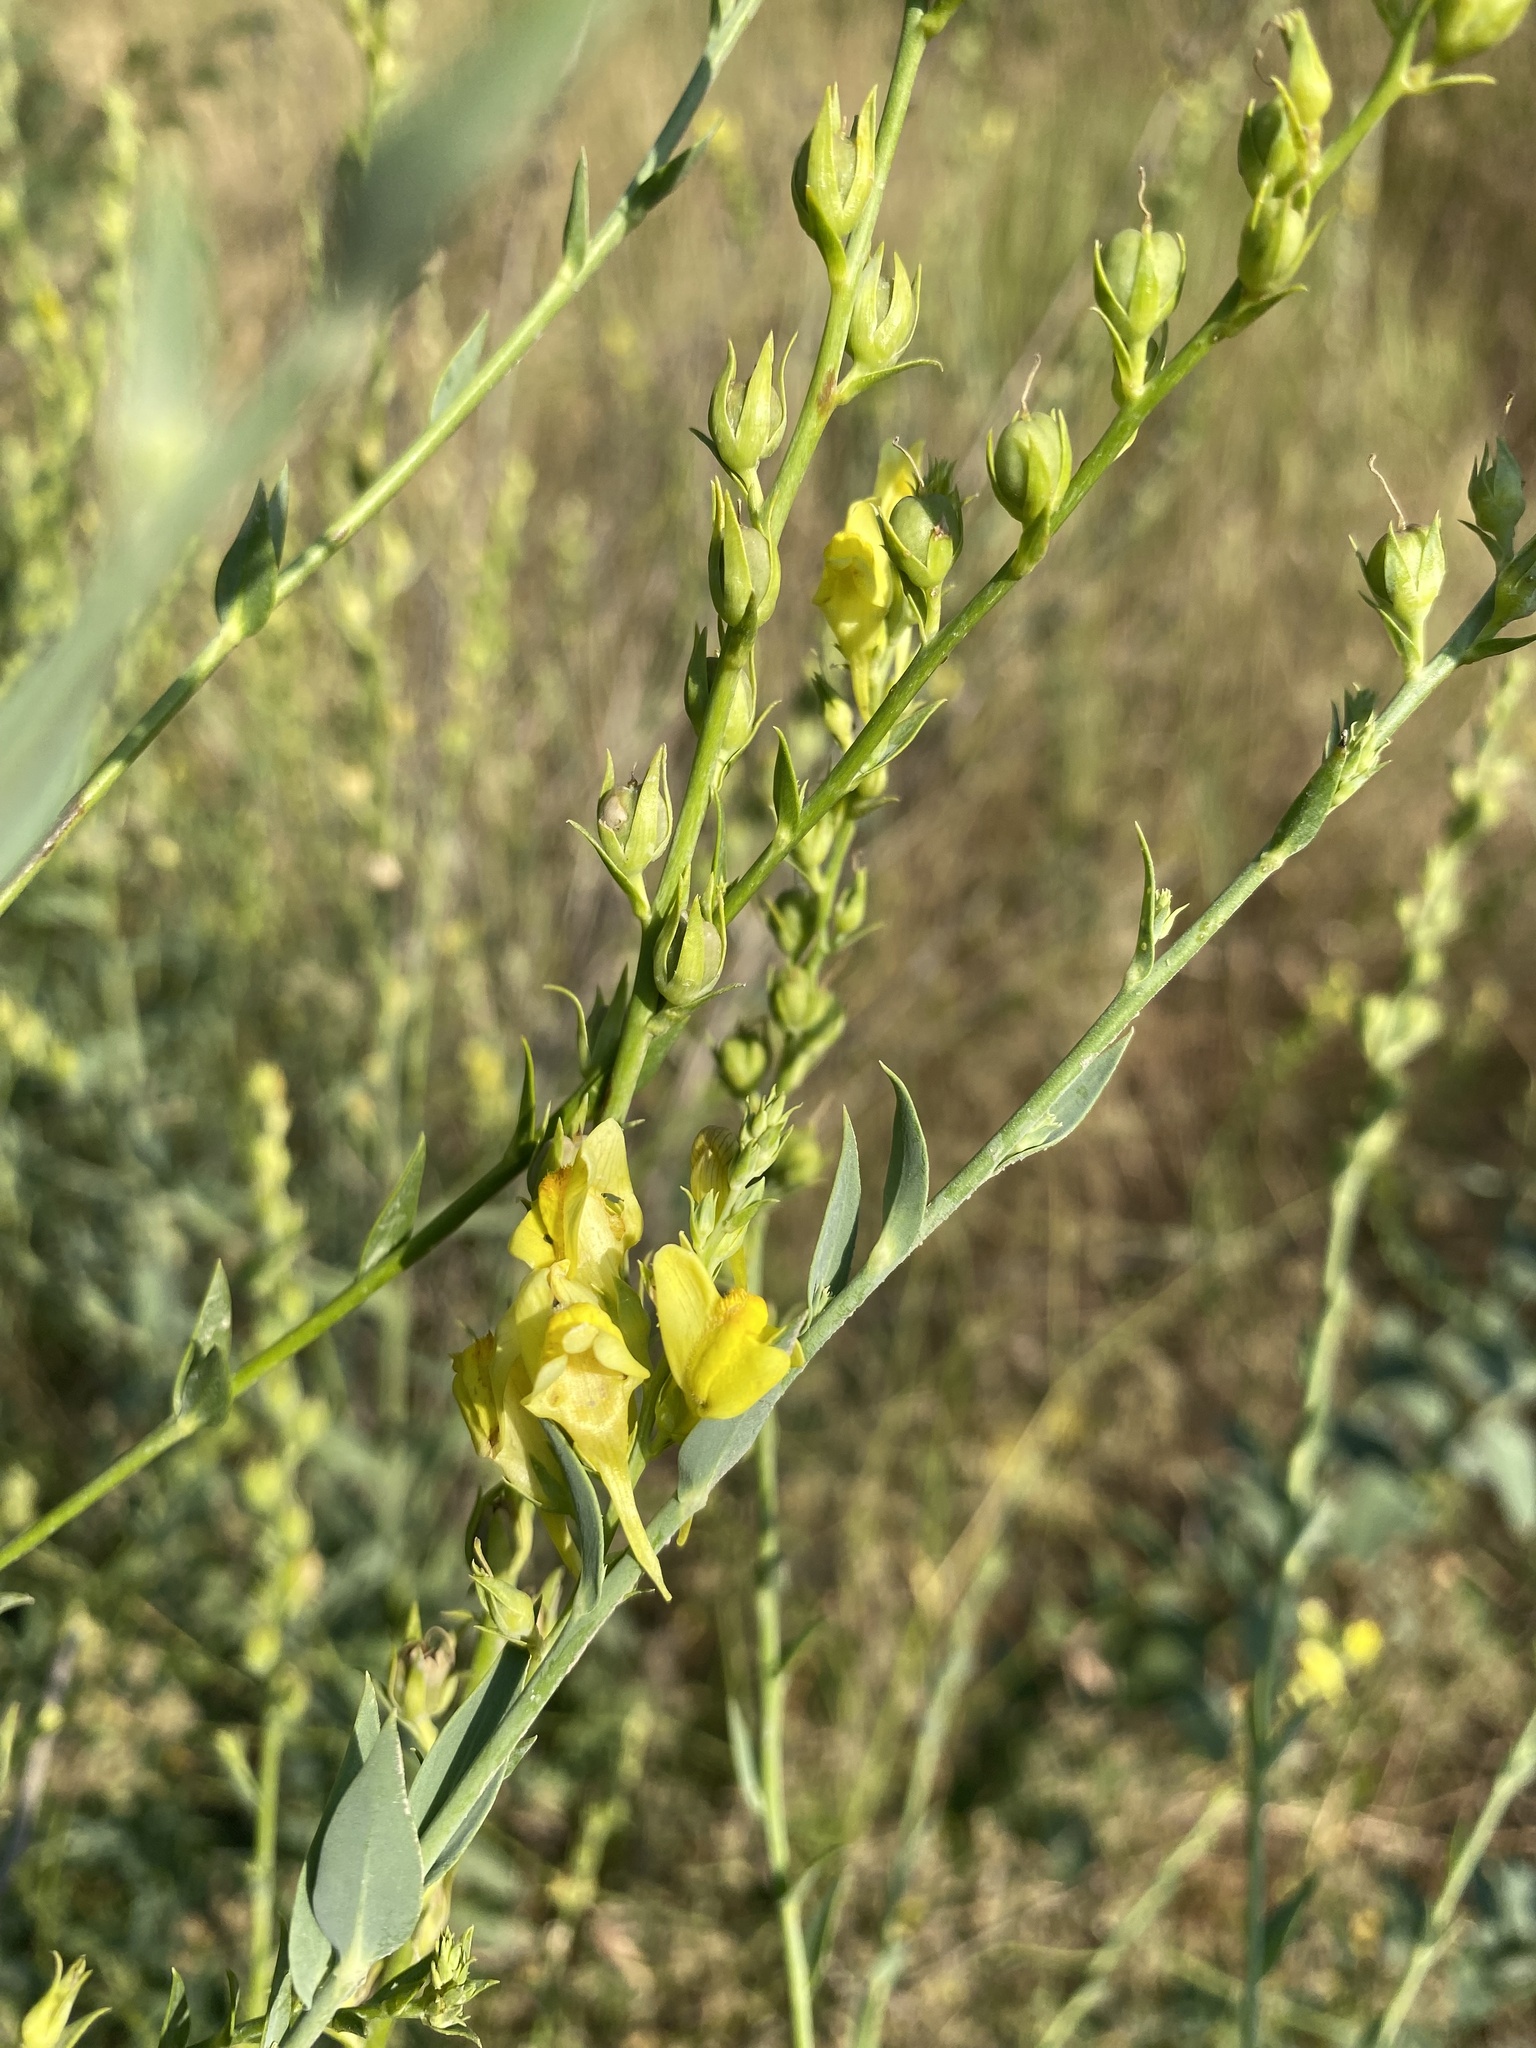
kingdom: Plantae
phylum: Tracheophyta
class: Magnoliopsida
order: Lamiales
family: Plantaginaceae
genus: Linaria
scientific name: Linaria genistifolia
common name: Broomleaf toadflax
